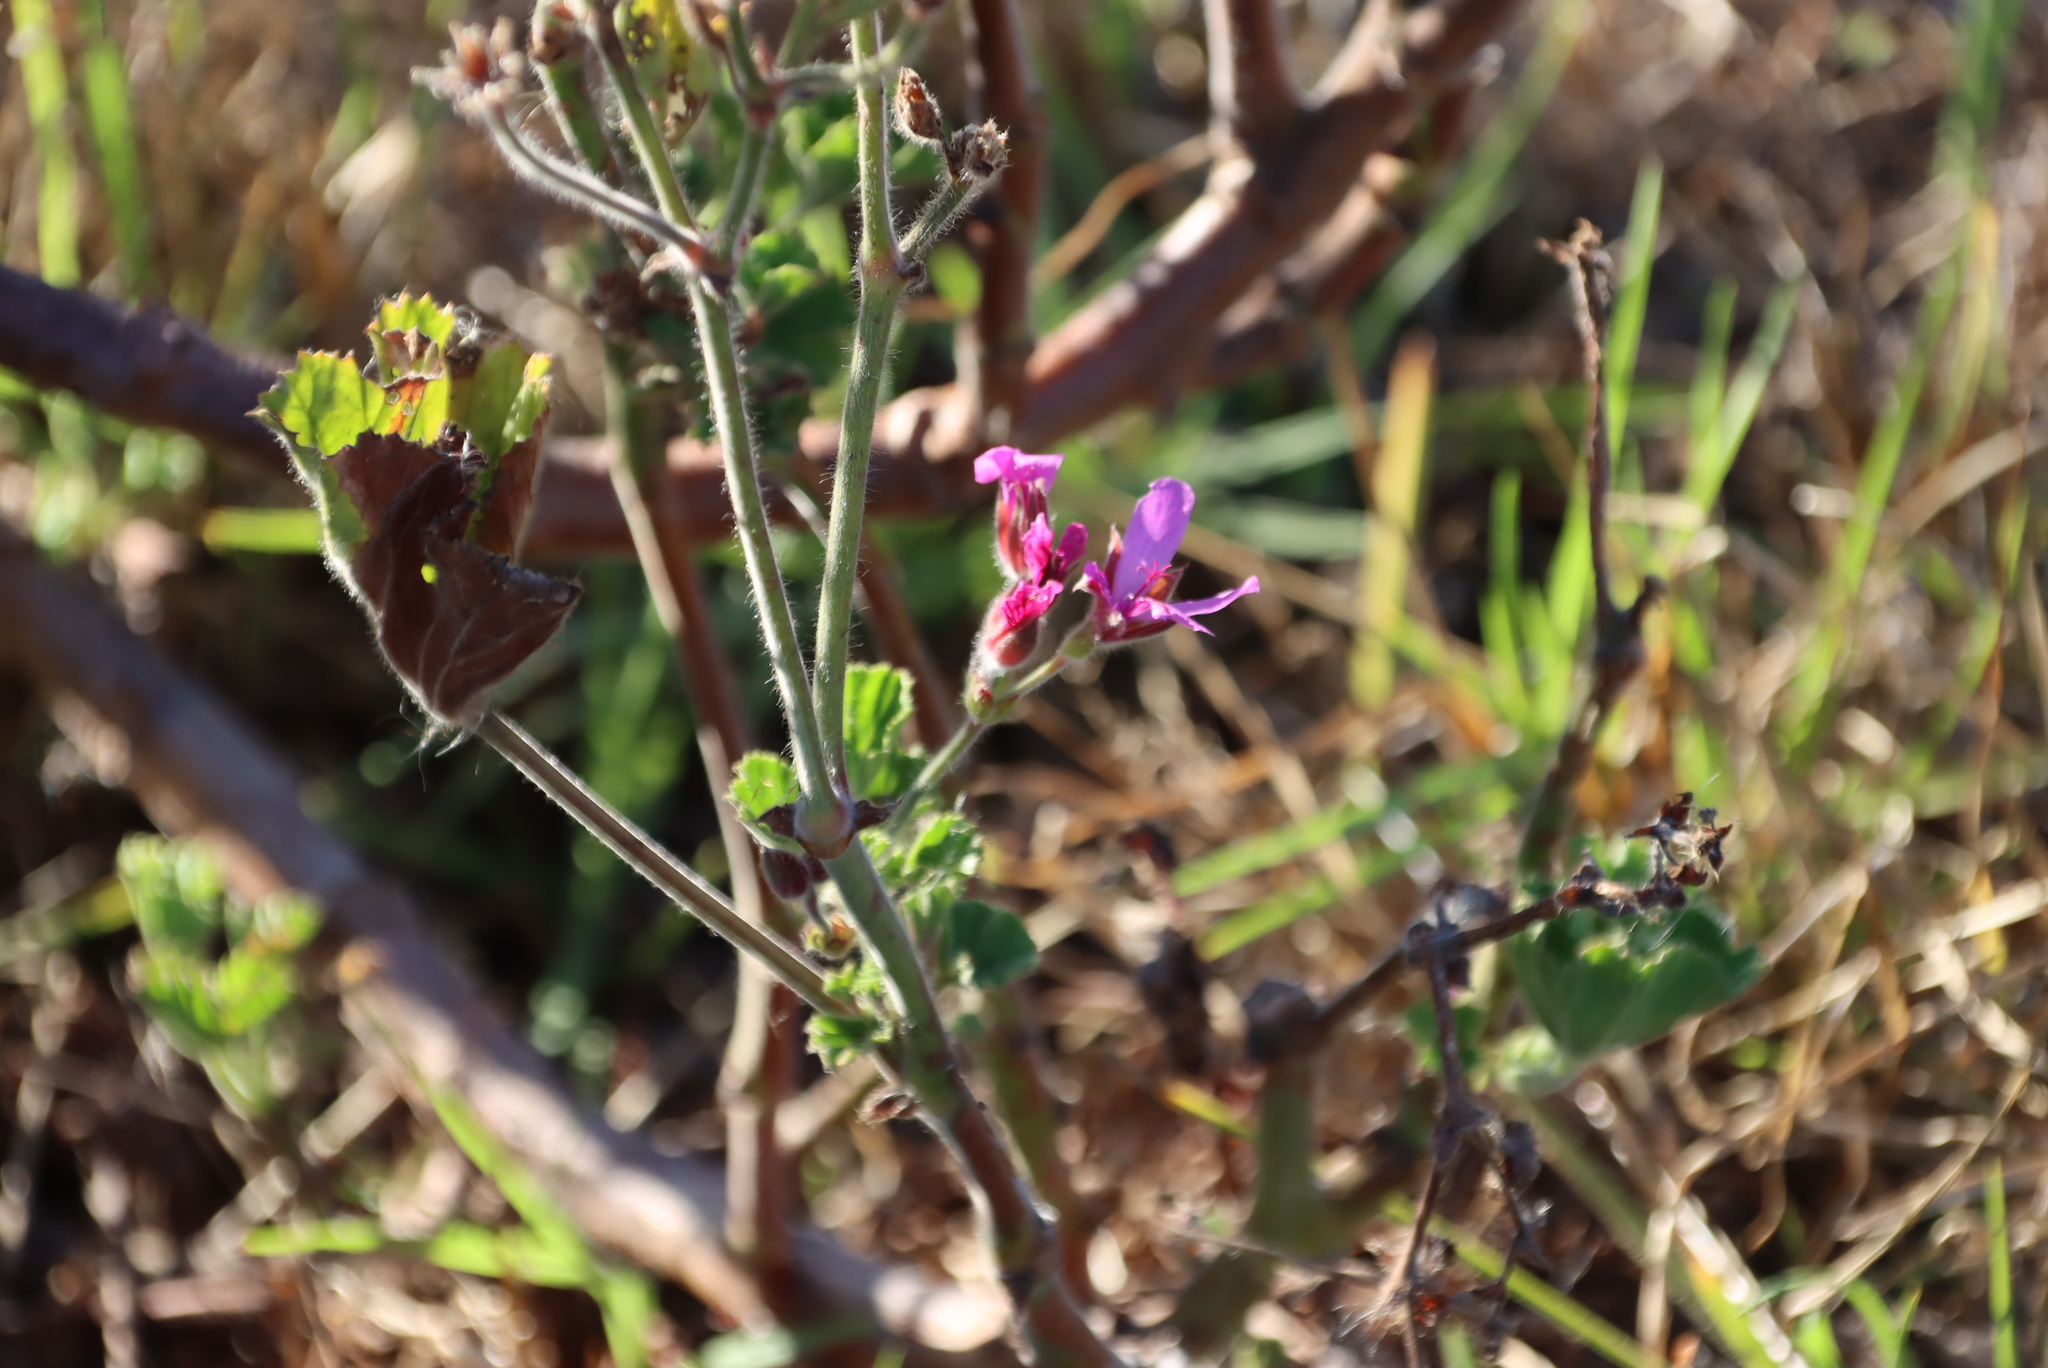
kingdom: Plantae
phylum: Tracheophyta
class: Magnoliopsida
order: Geraniales
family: Geraniaceae
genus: Pelargonium
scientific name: Pelargonium cucullatum
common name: Tree pelargonium
